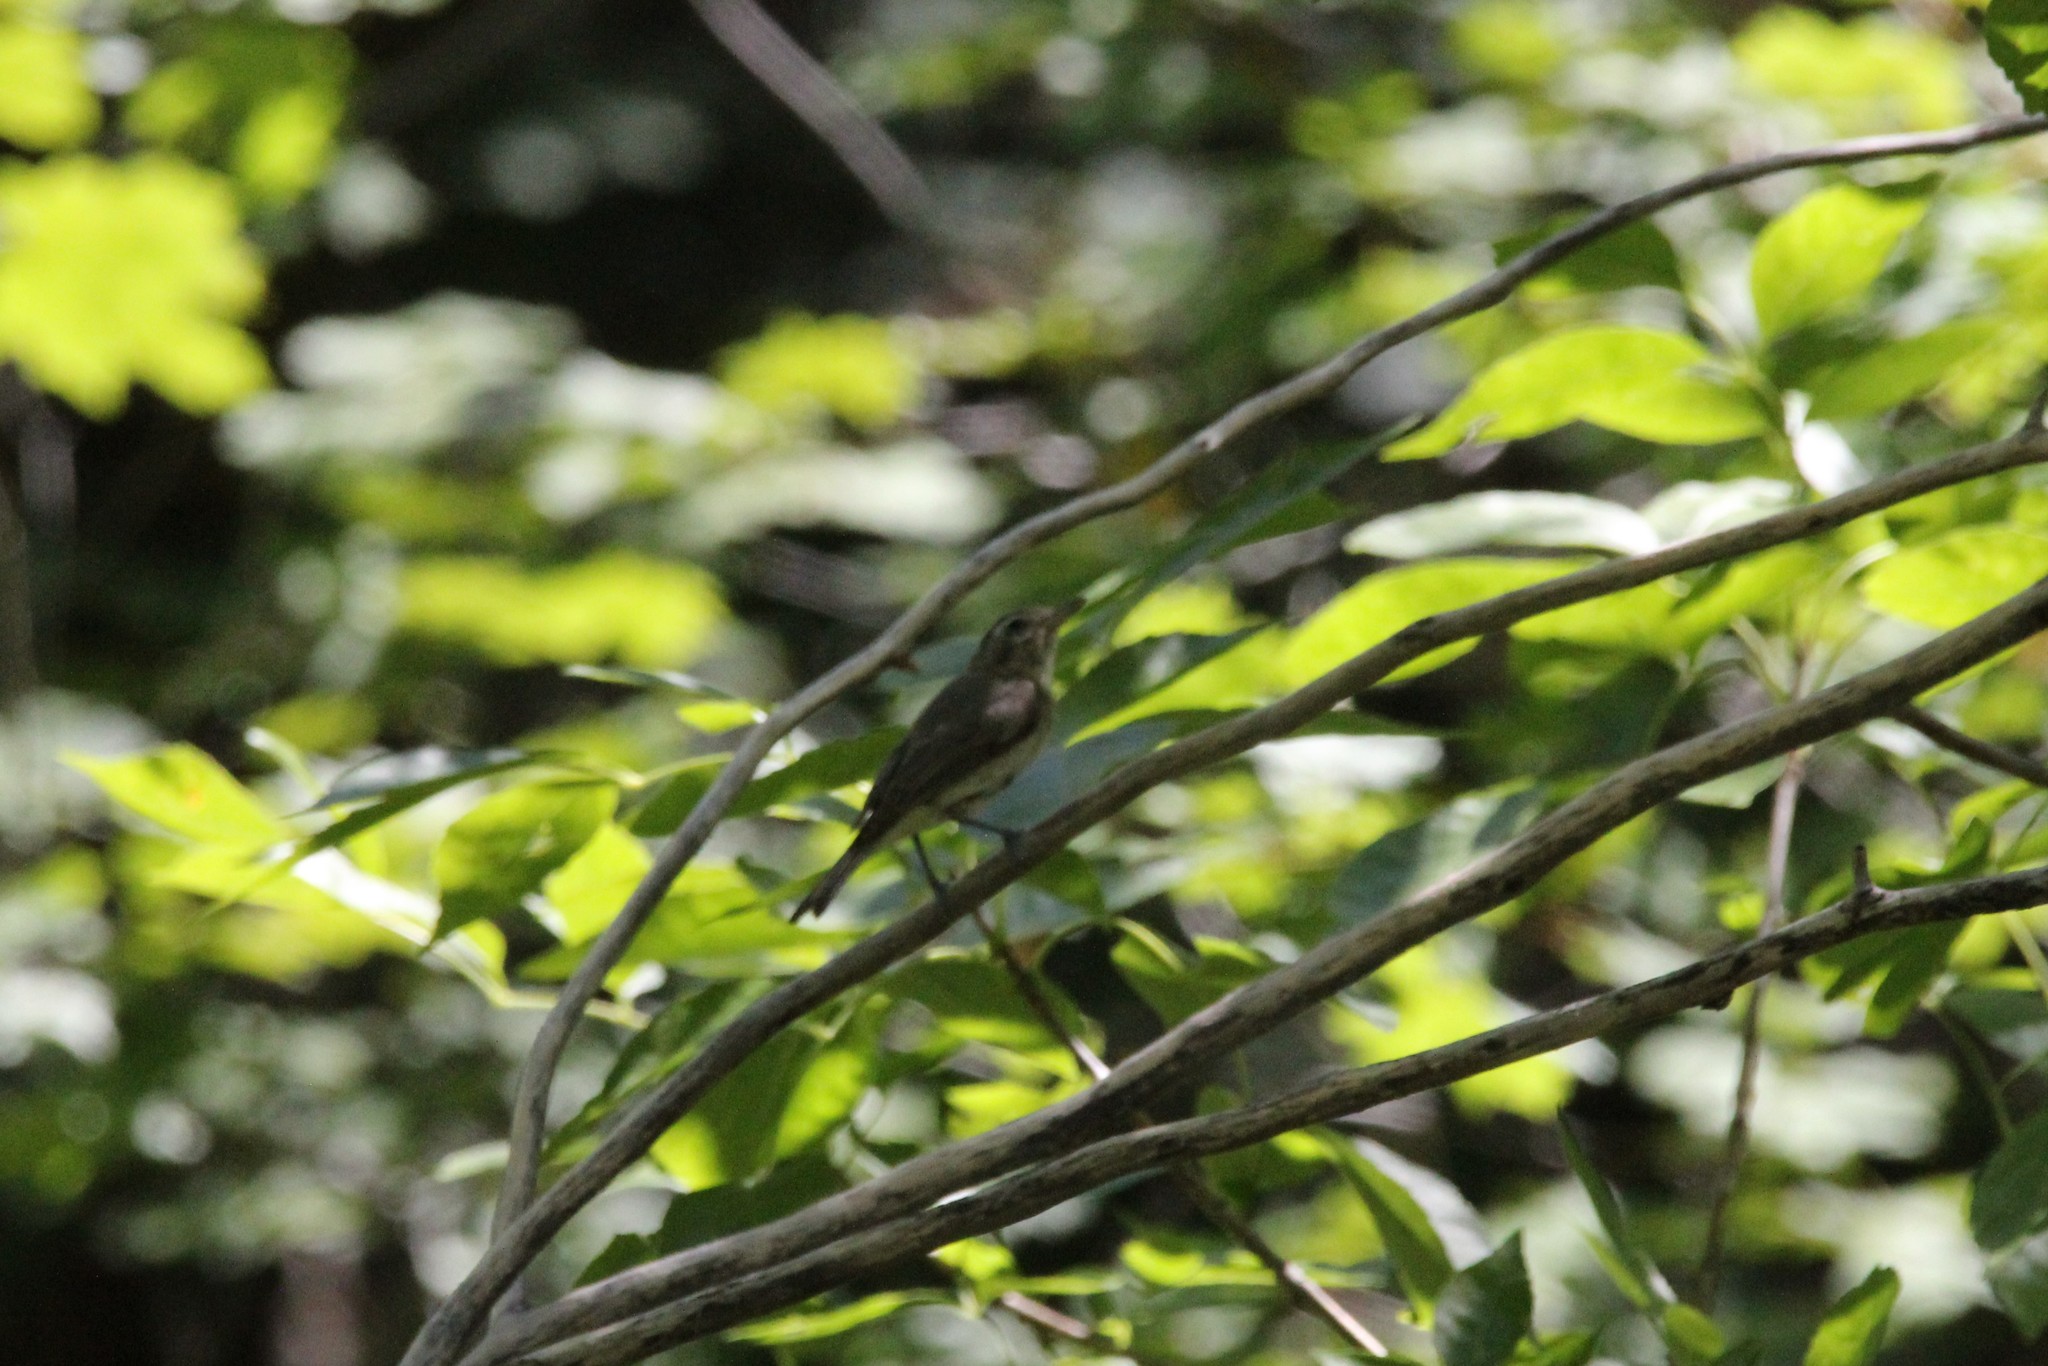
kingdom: Animalia
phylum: Chordata
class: Aves
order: Passeriformes
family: Vireonidae
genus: Vireo
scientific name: Vireo gilvus
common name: Warbling vireo
